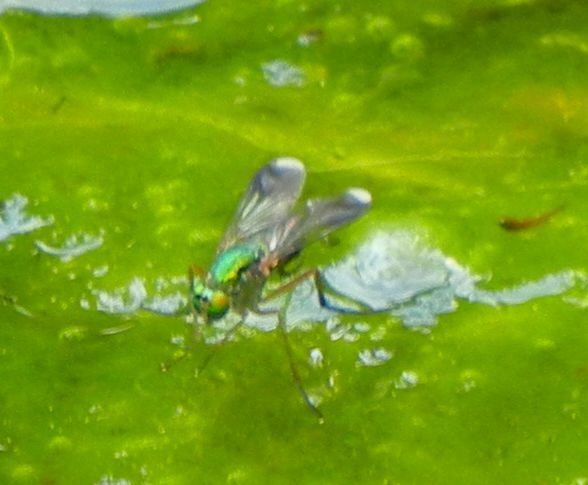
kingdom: Animalia
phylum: Arthropoda
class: Insecta
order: Diptera
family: Dolichopodidae
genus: Poecilobothrus
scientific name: Poecilobothrus nobilitatus
